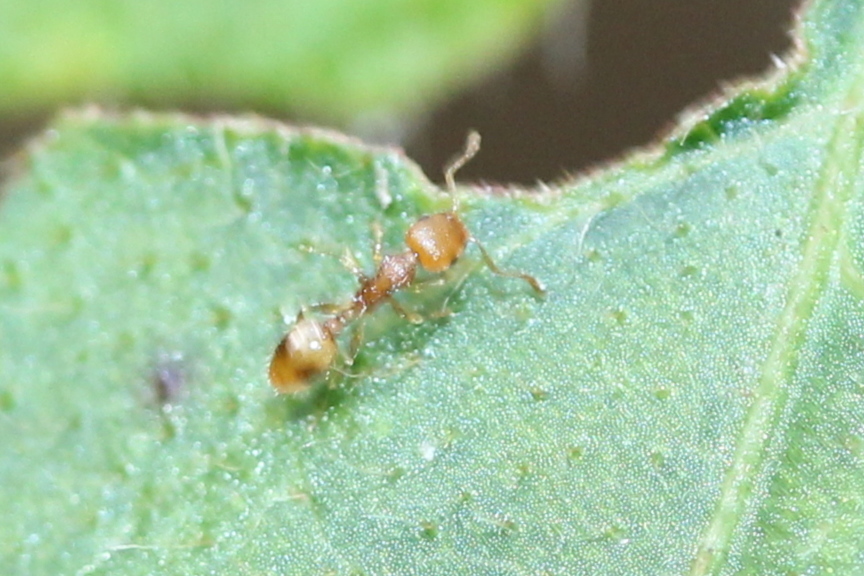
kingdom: Animalia
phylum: Arthropoda
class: Insecta
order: Hymenoptera
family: Formicidae
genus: Temnothorax
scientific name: Temnothorax curvispinosus
